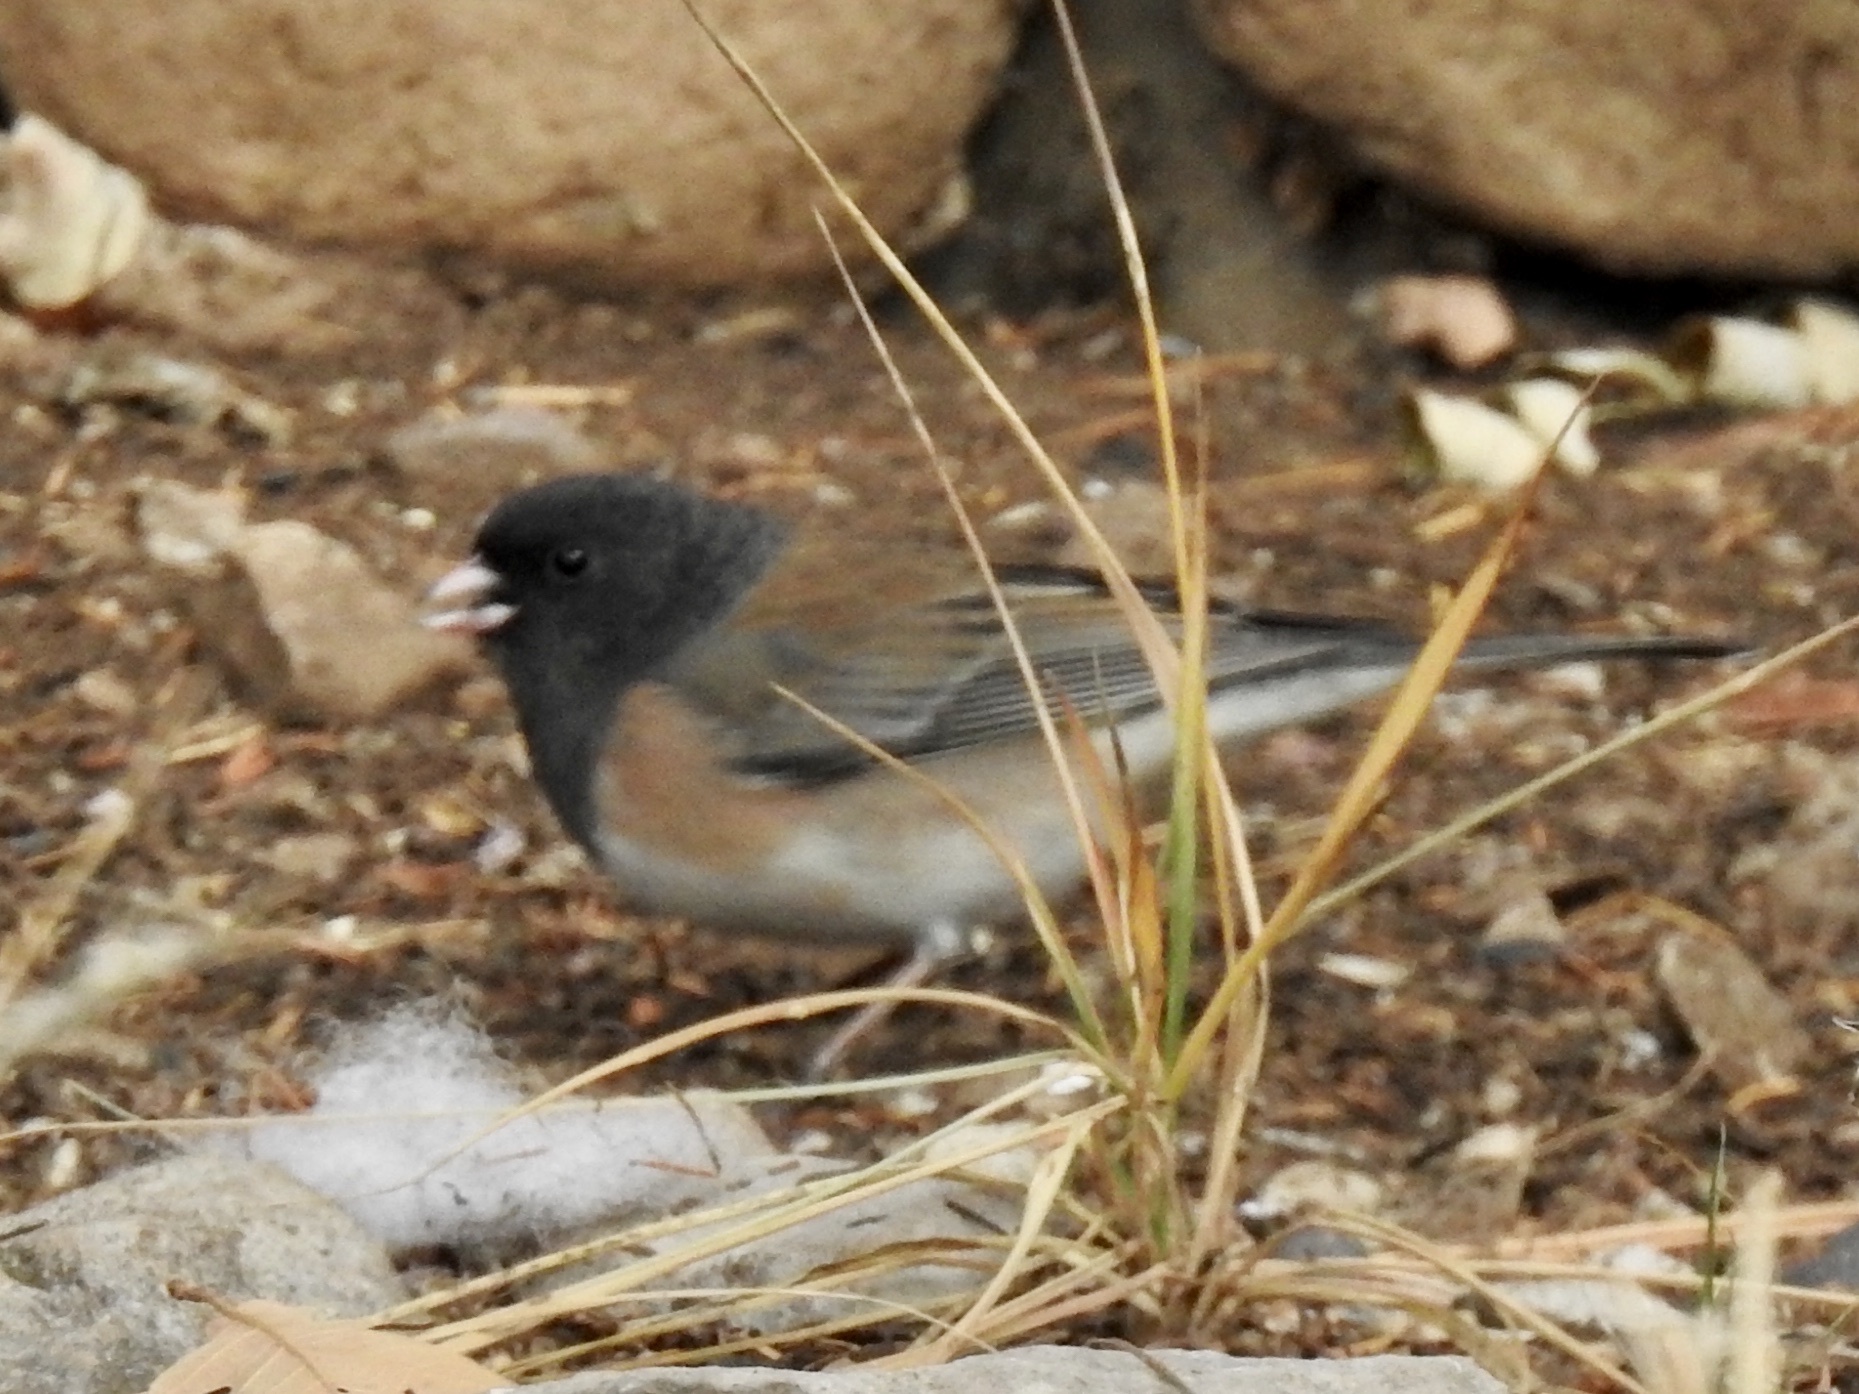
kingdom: Animalia
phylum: Chordata
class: Aves
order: Passeriformes
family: Passerellidae
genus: Junco
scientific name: Junco hyemalis
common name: Dark-eyed junco
